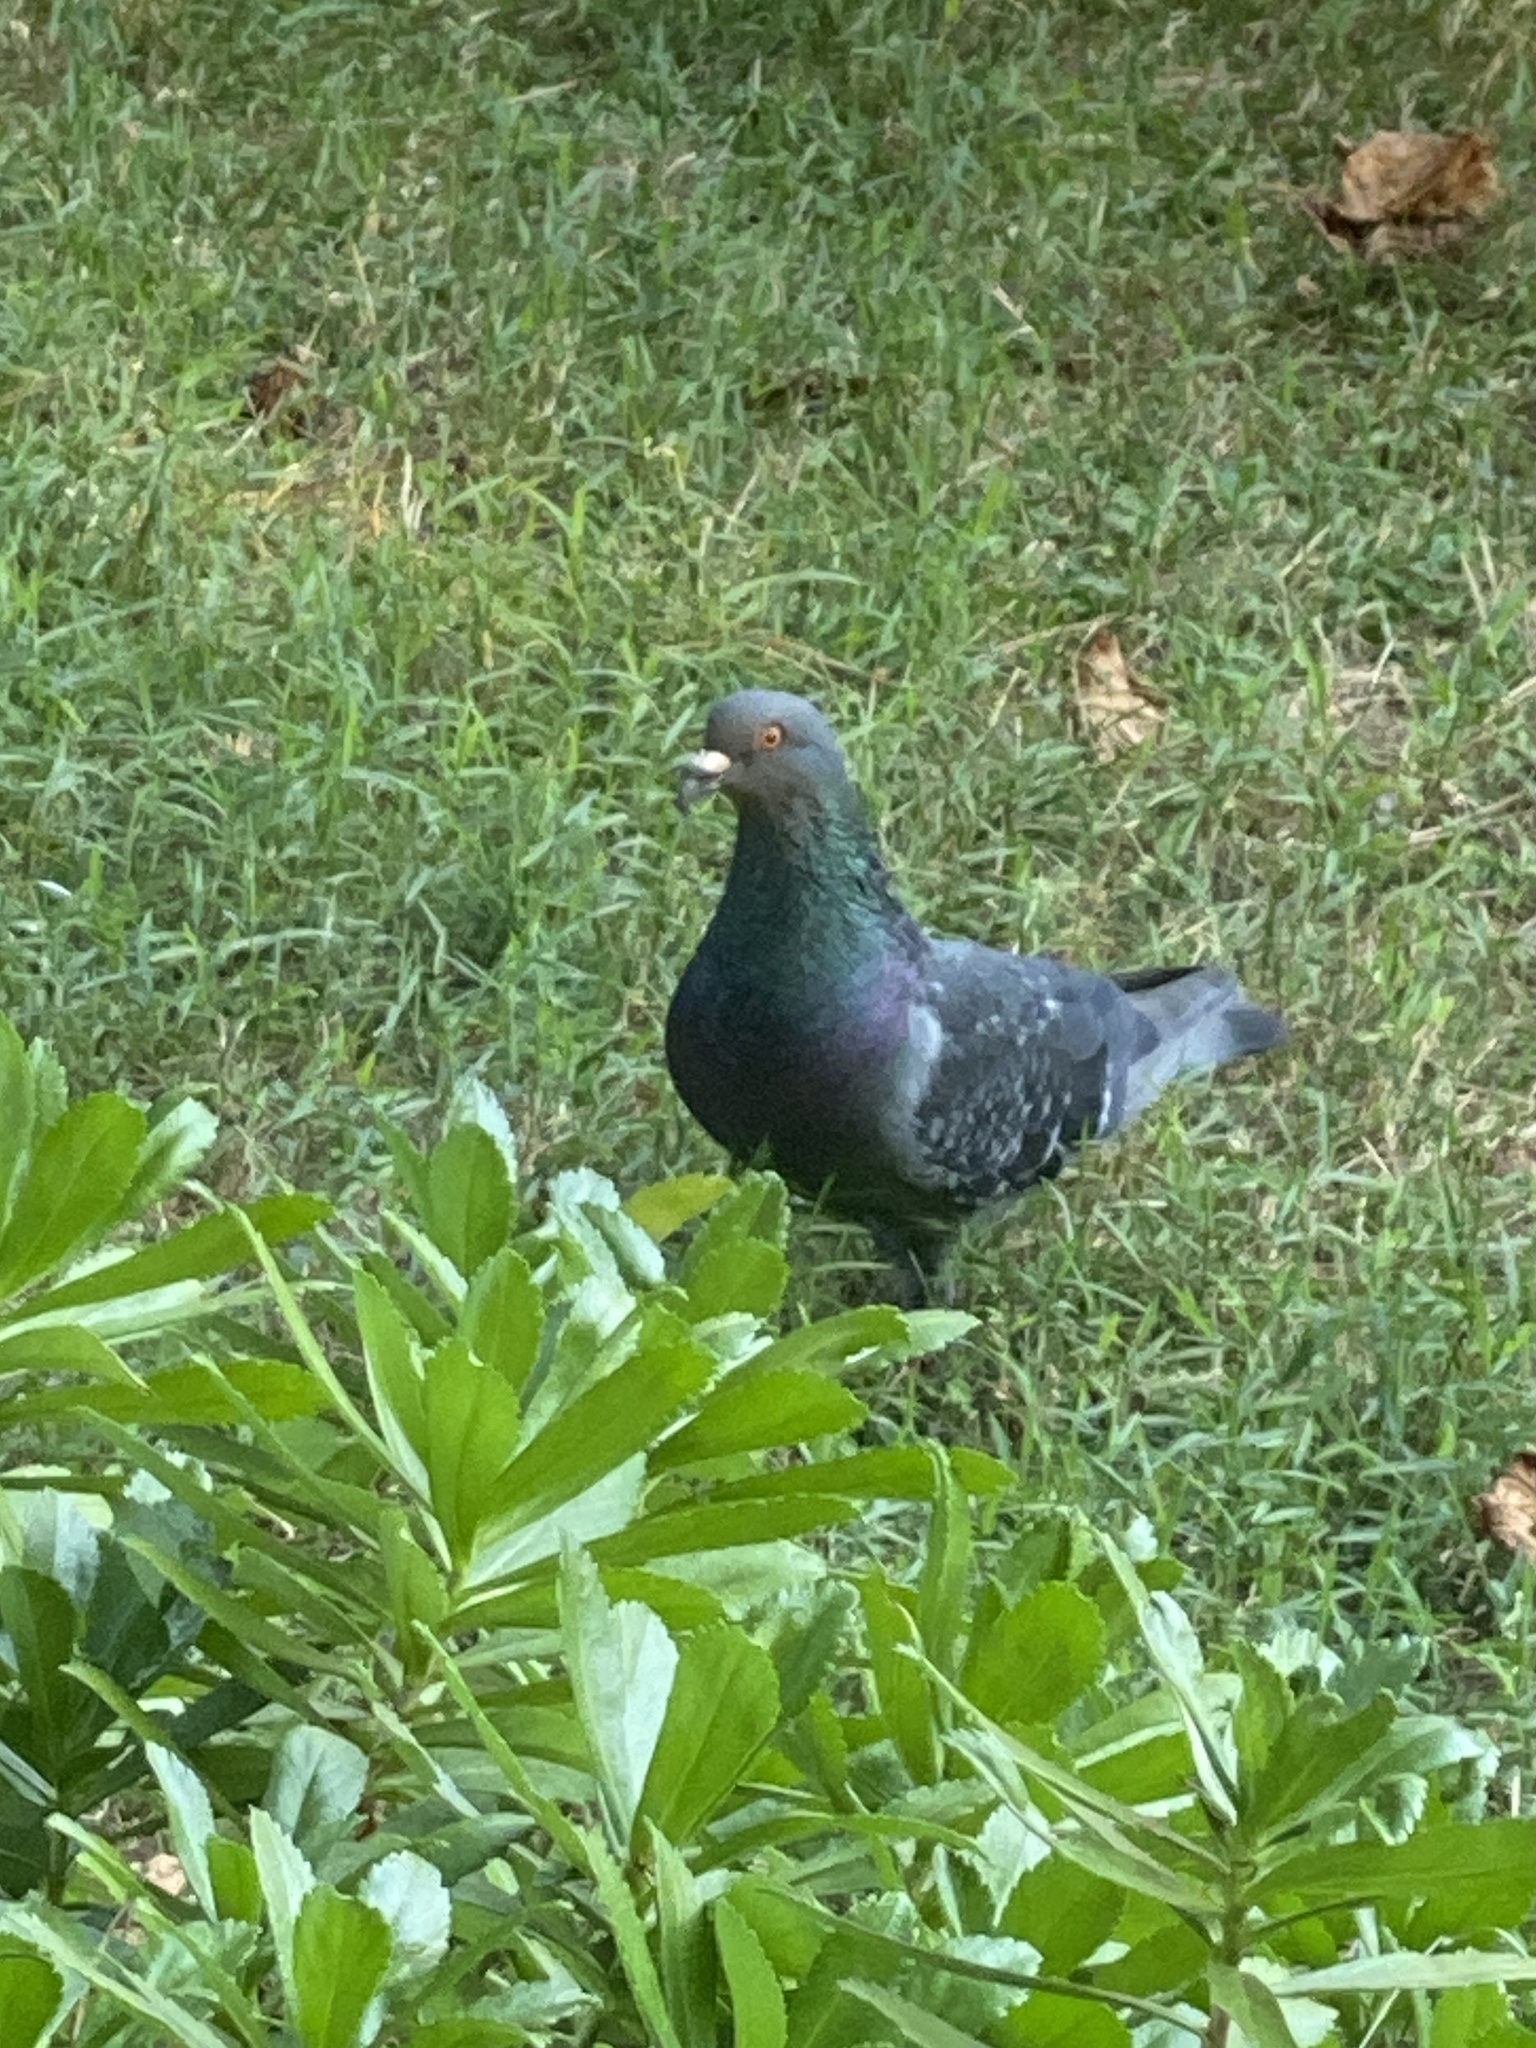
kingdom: Animalia
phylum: Chordata
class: Aves
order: Columbiformes
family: Columbidae
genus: Columba
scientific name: Columba livia
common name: Rock pigeon
